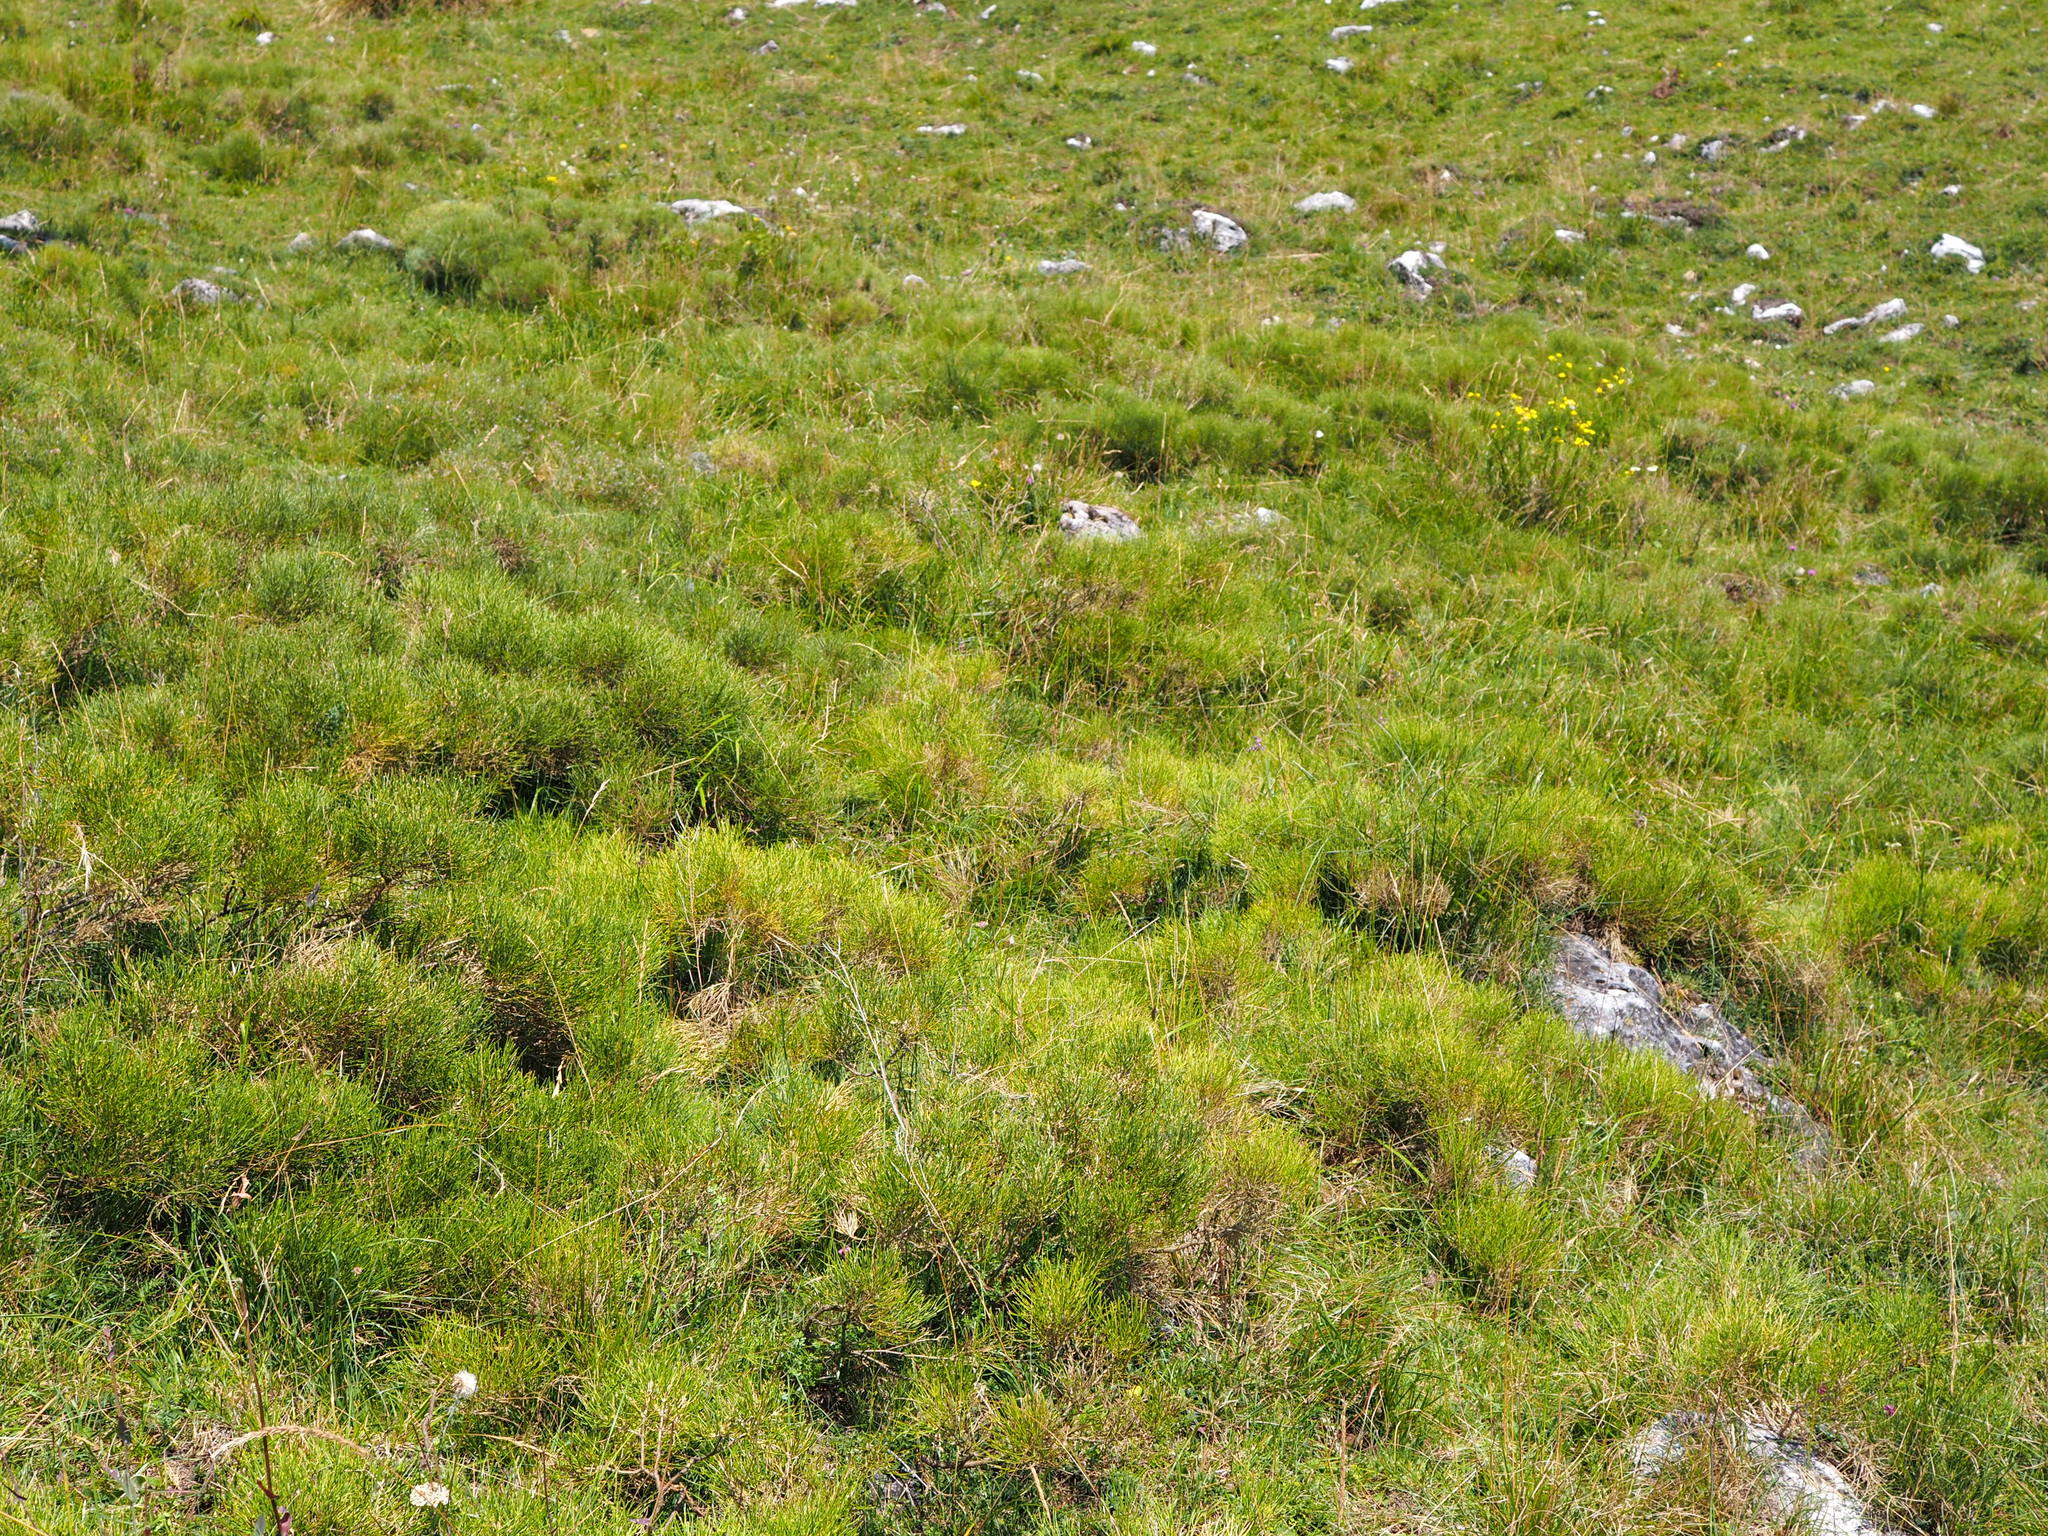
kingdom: Animalia
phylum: Arthropoda
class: Insecta
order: Orthoptera
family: Acrididae
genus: Pseudoprumna
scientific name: Pseudoprumna baldensis
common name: Baldo mountain grasshopper
